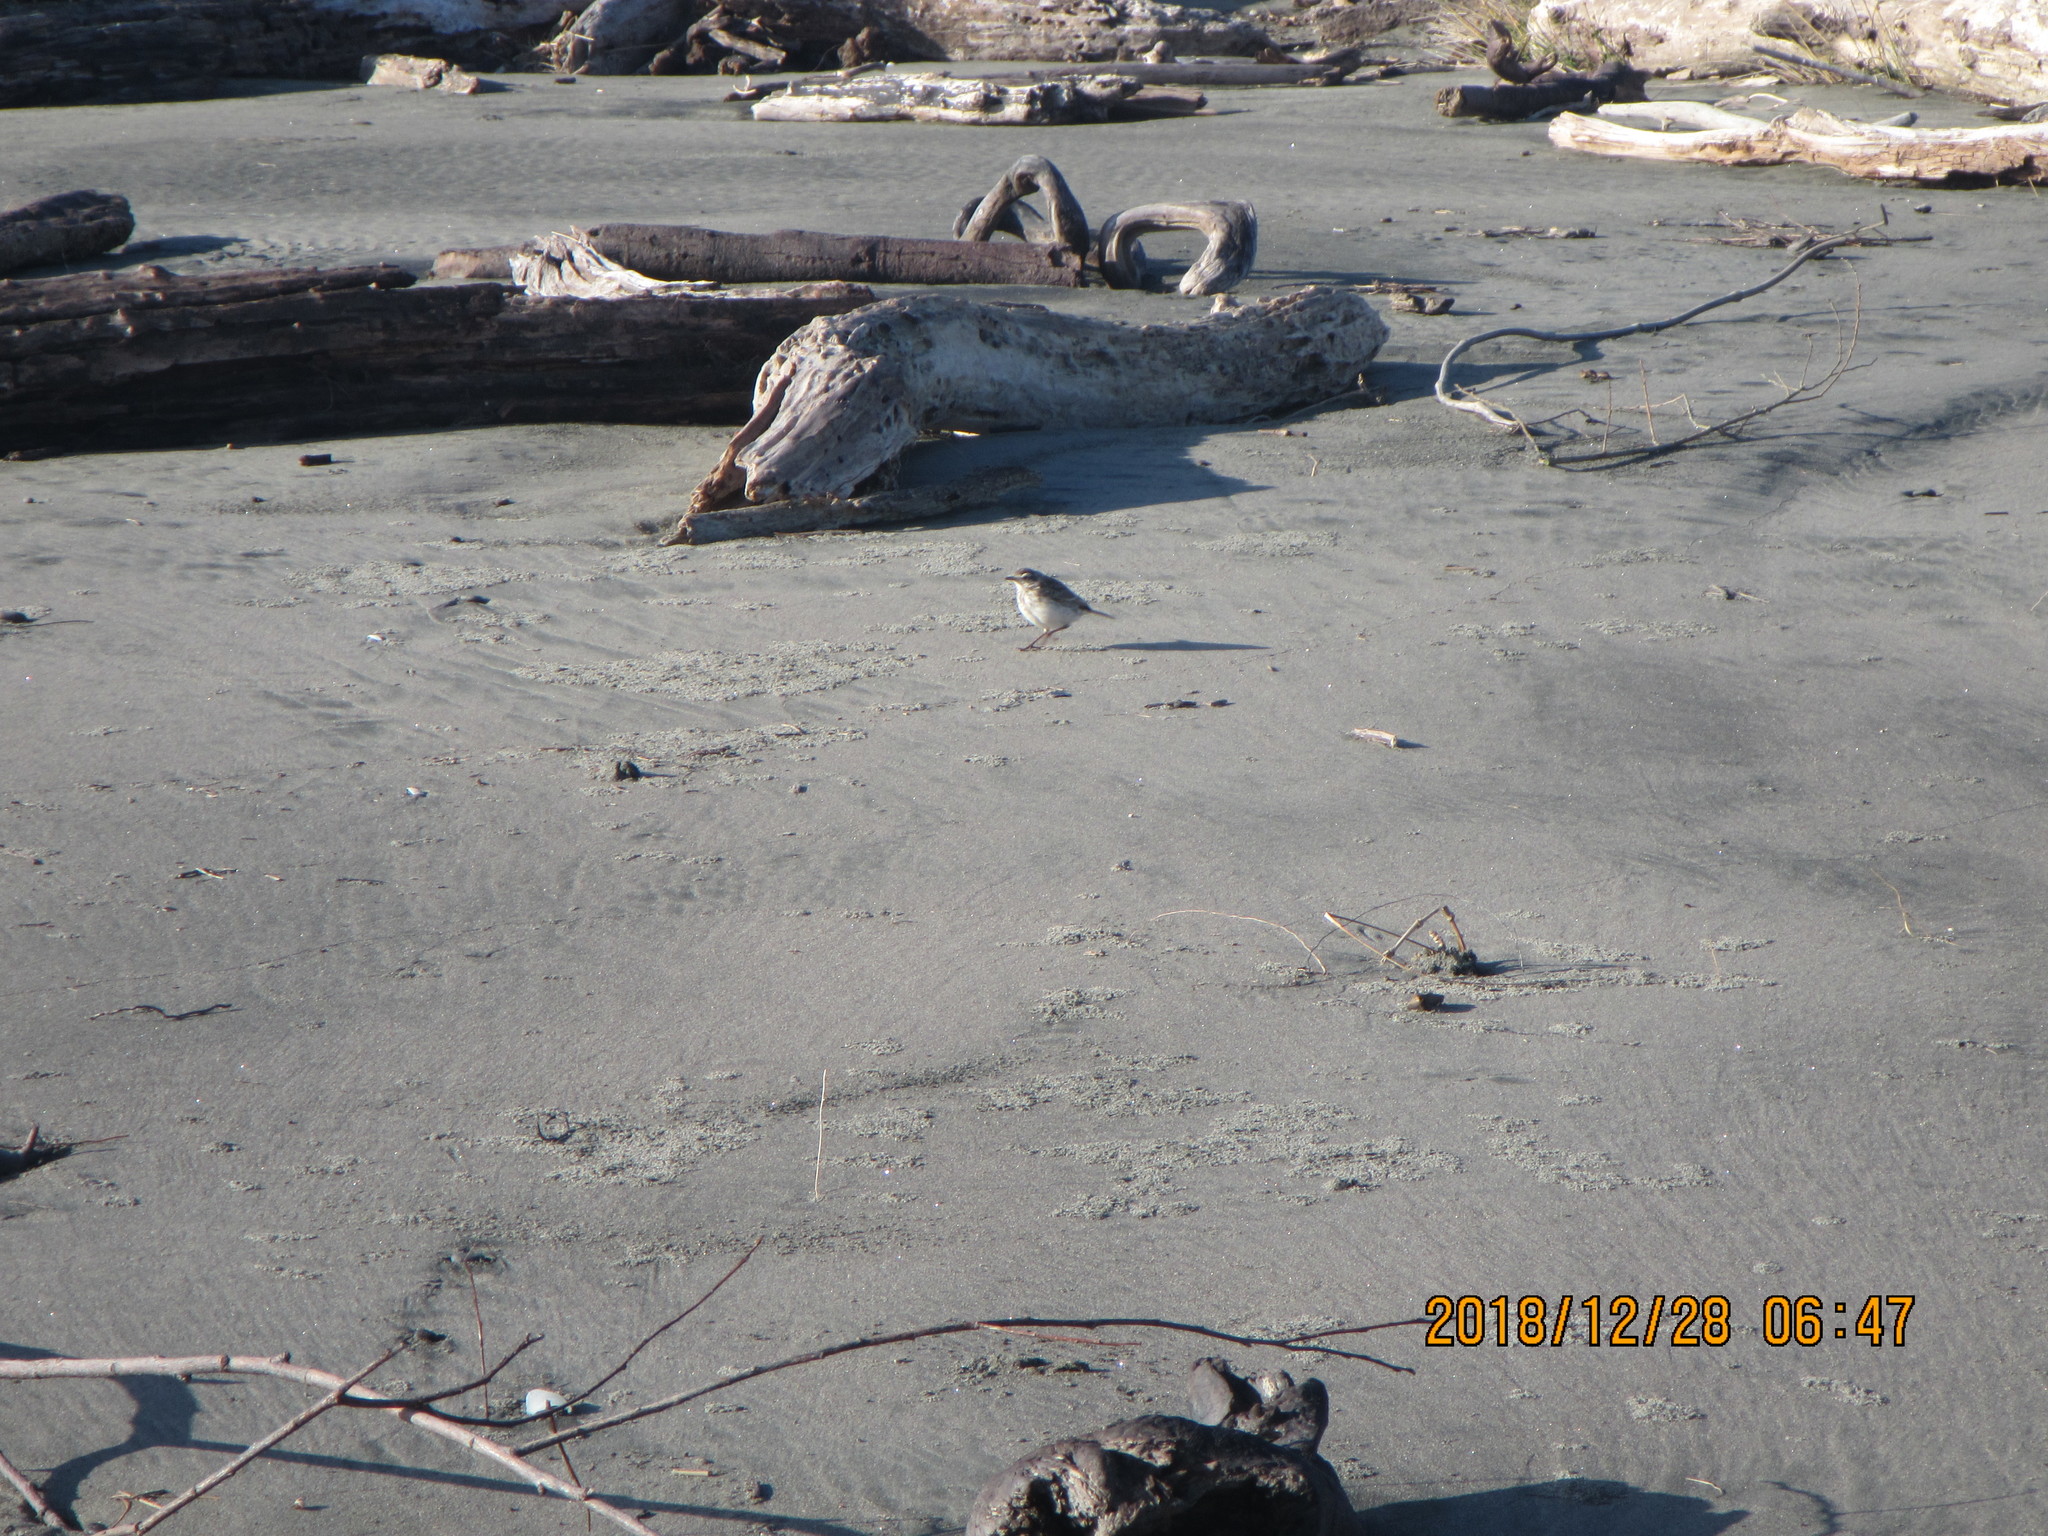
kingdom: Animalia
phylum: Chordata
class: Aves
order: Passeriformes
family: Motacillidae
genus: Anthus
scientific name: Anthus novaeseelandiae
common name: New zealand pipit
